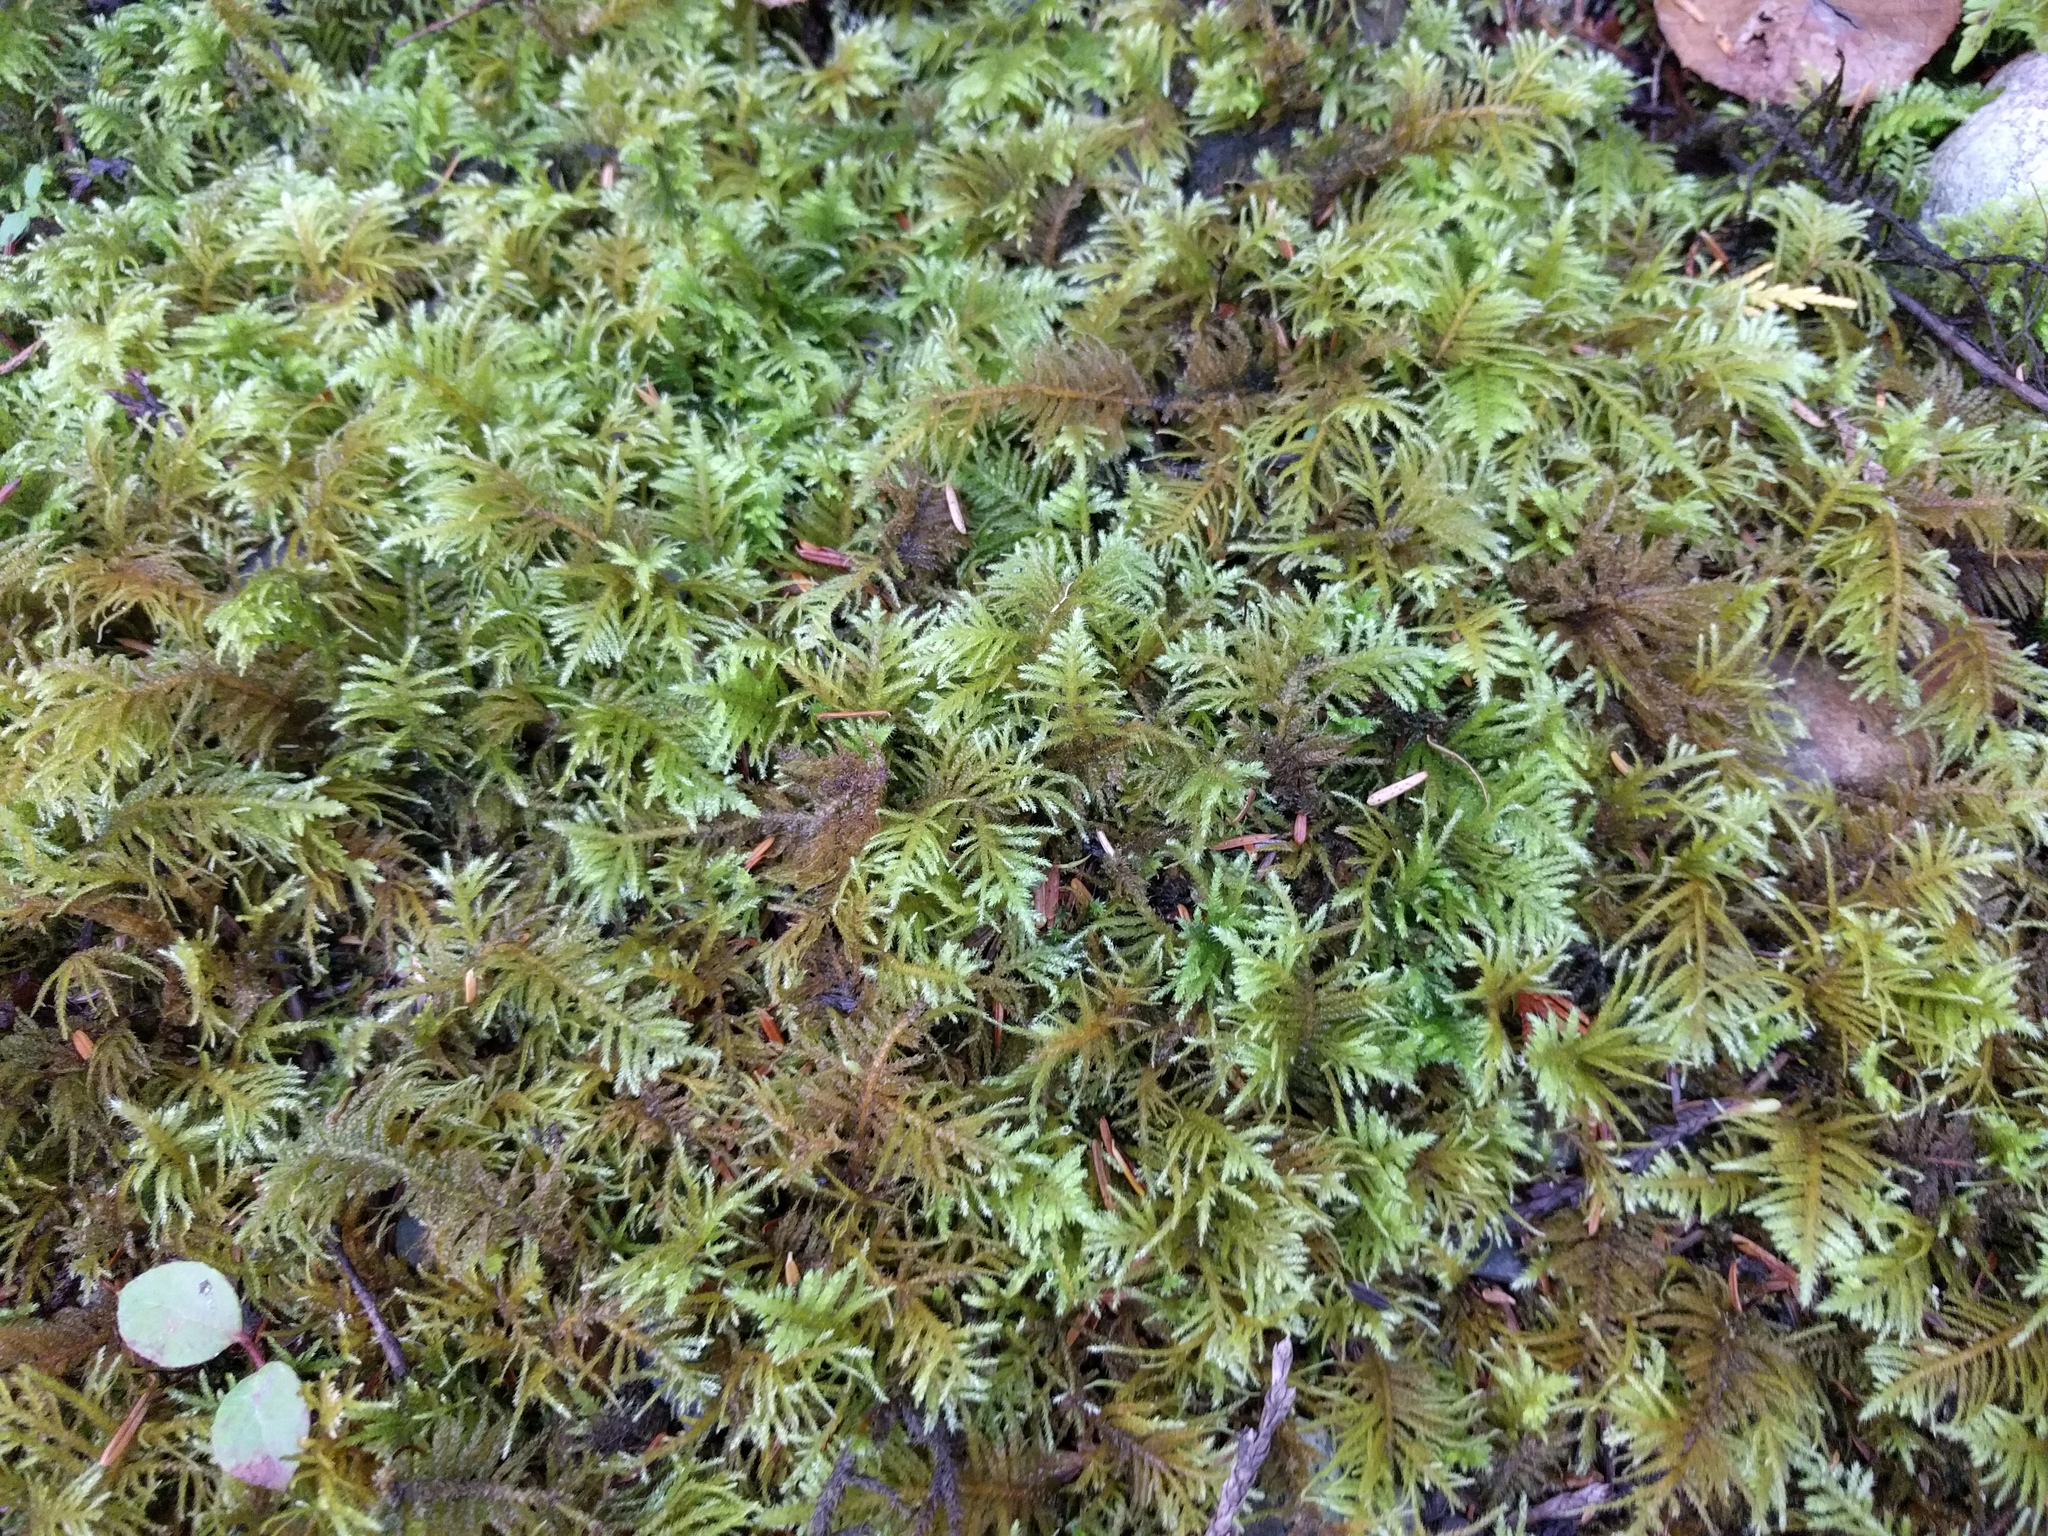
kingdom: Plantae
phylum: Bryophyta
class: Bryopsida
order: Hypnales
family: Brachytheciaceae
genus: Kindbergia
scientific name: Kindbergia oregana
